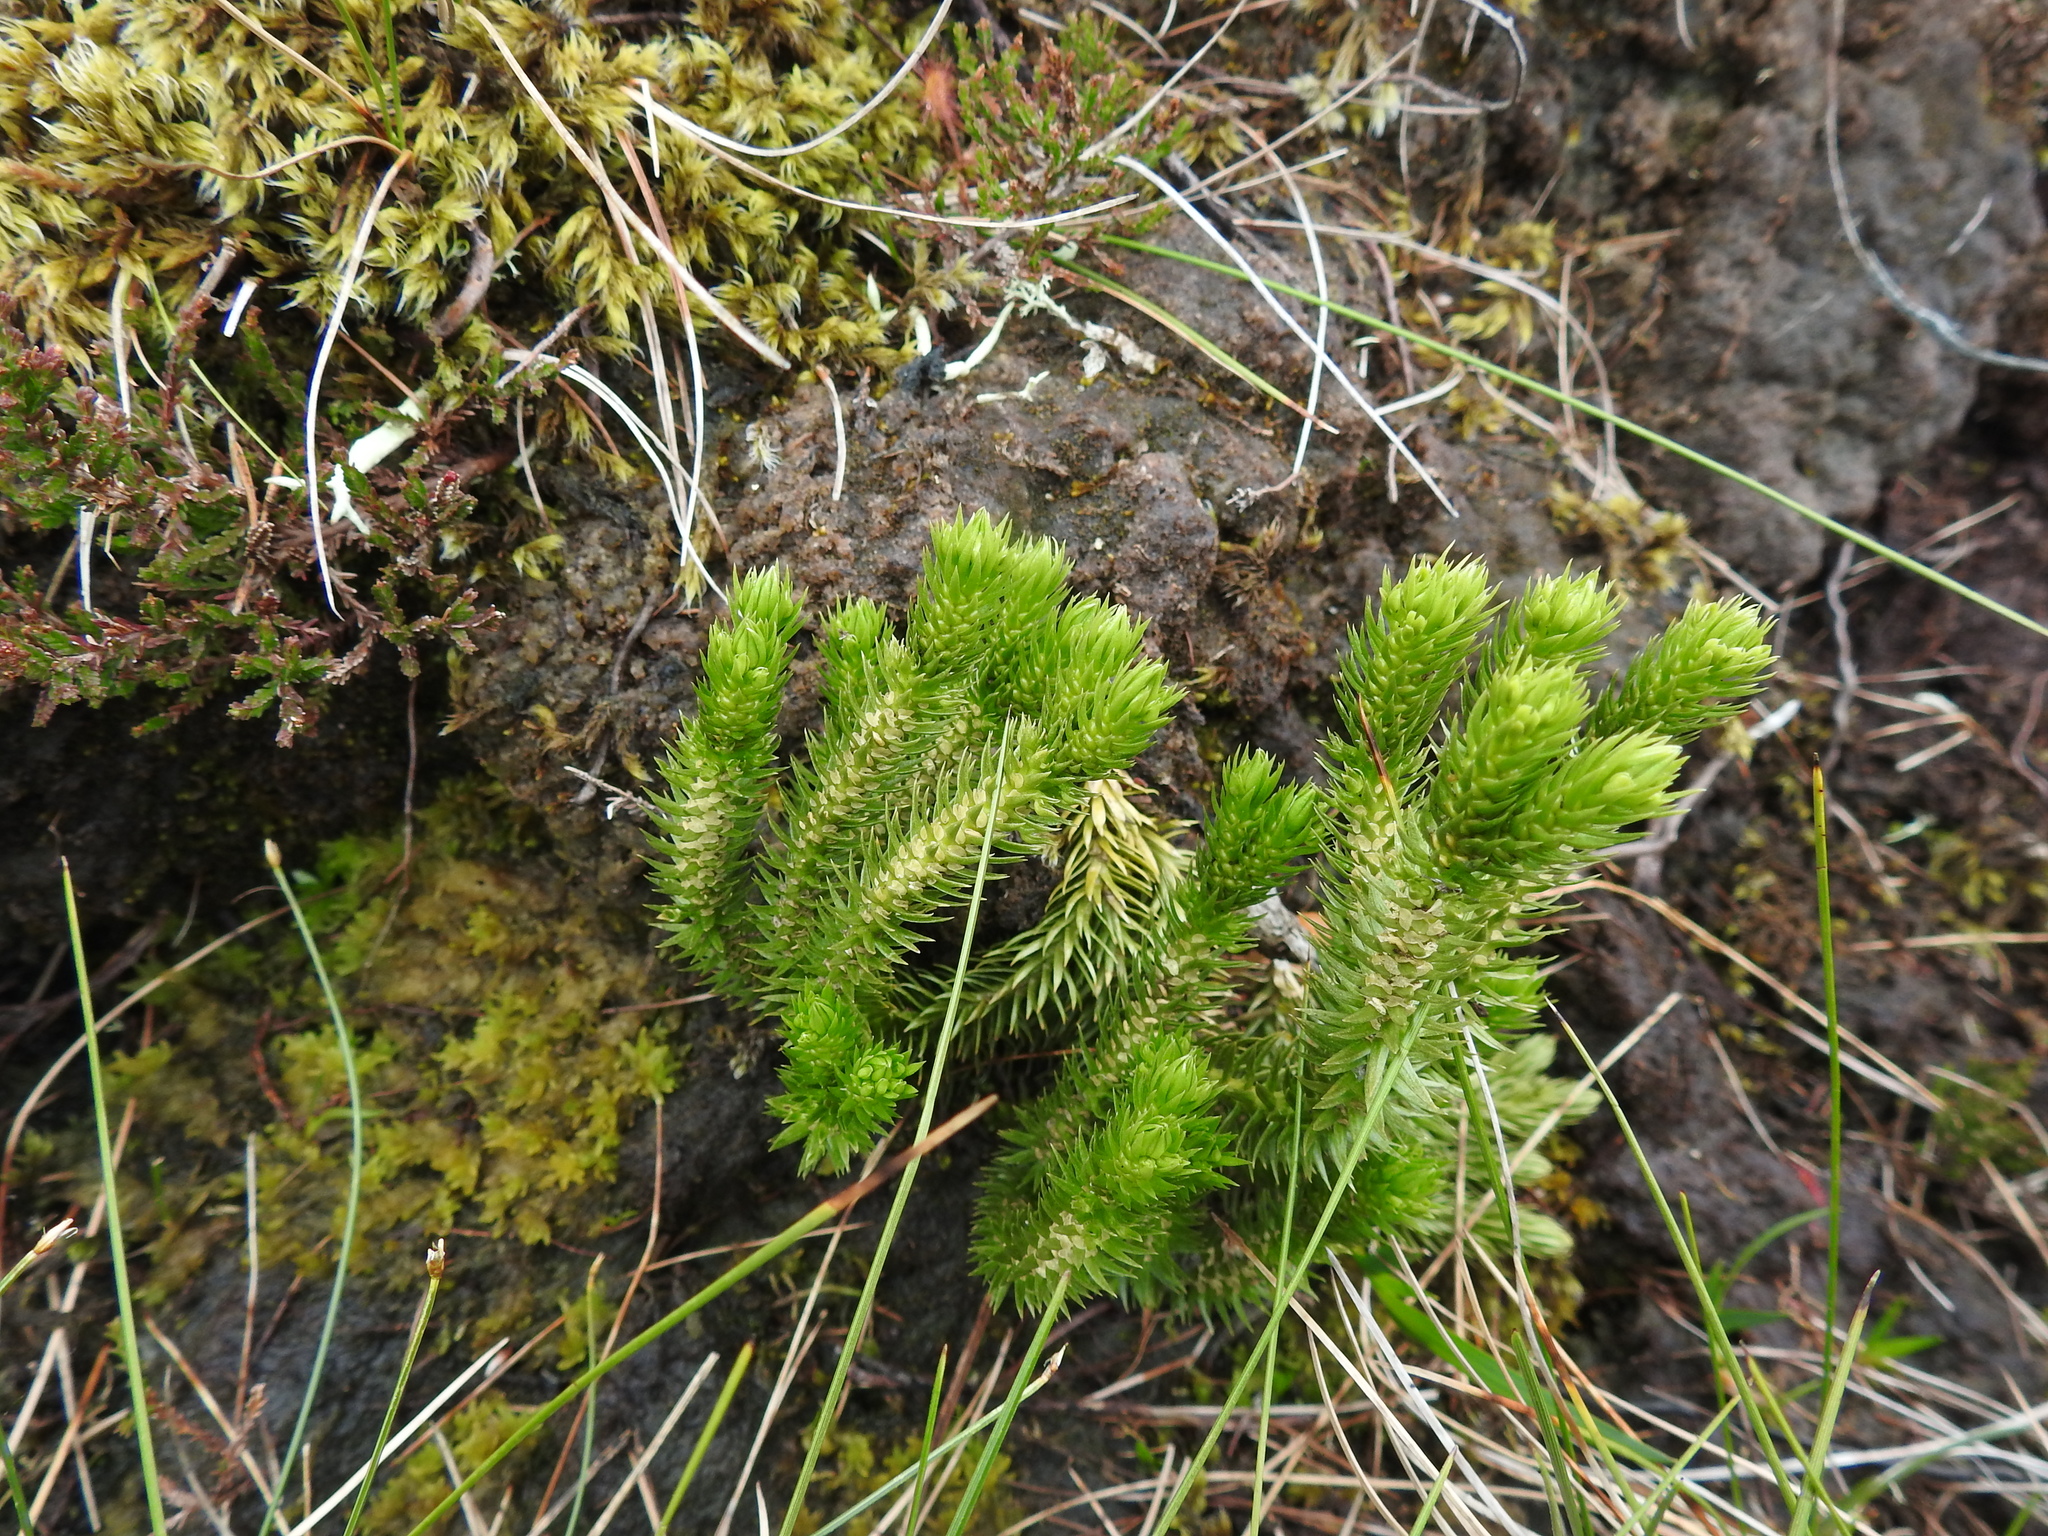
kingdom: Plantae
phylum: Tracheophyta
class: Lycopodiopsida
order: Lycopodiales
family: Lycopodiaceae
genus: Huperzia
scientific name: Huperzia selago
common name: Northern firmoss
